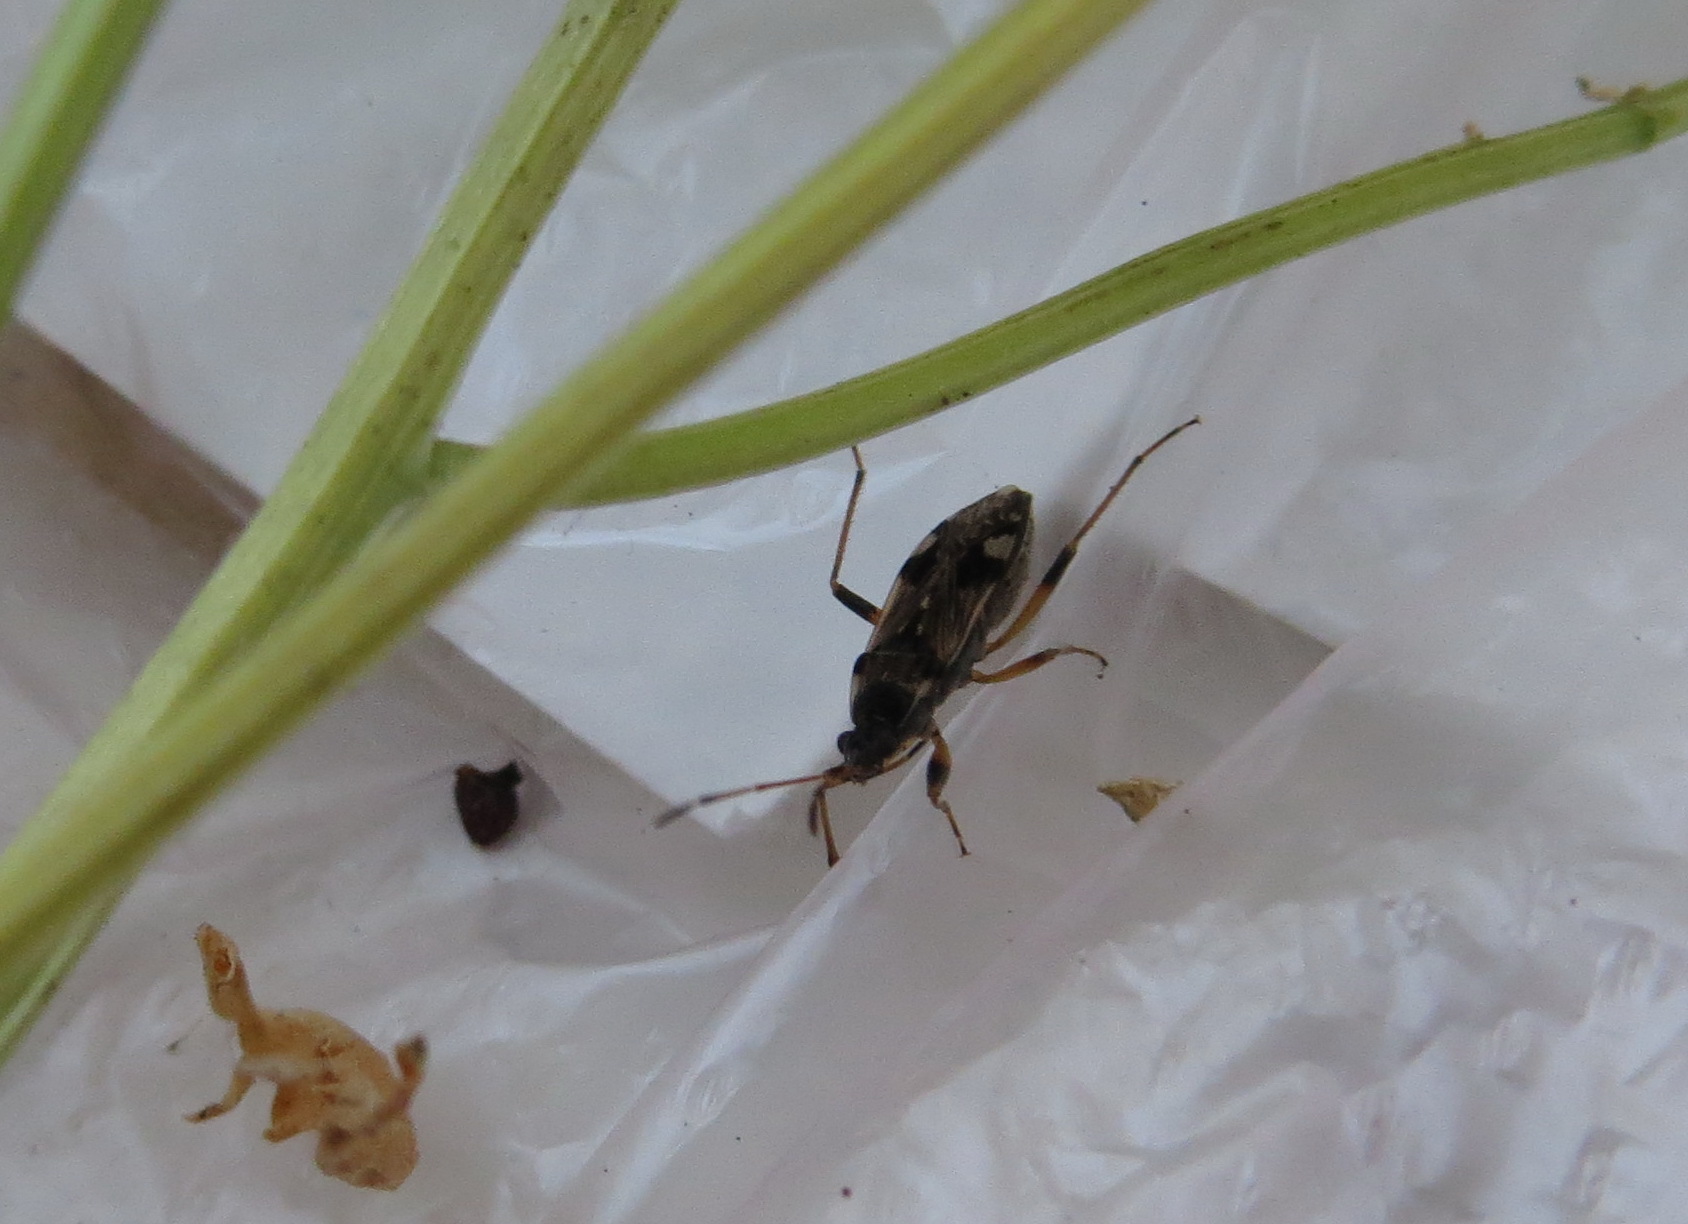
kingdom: Animalia
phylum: Arthropoda
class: Insecta
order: Hemiptera
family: Rhyparochromidae
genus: Beosus
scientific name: Beosus maritimus
